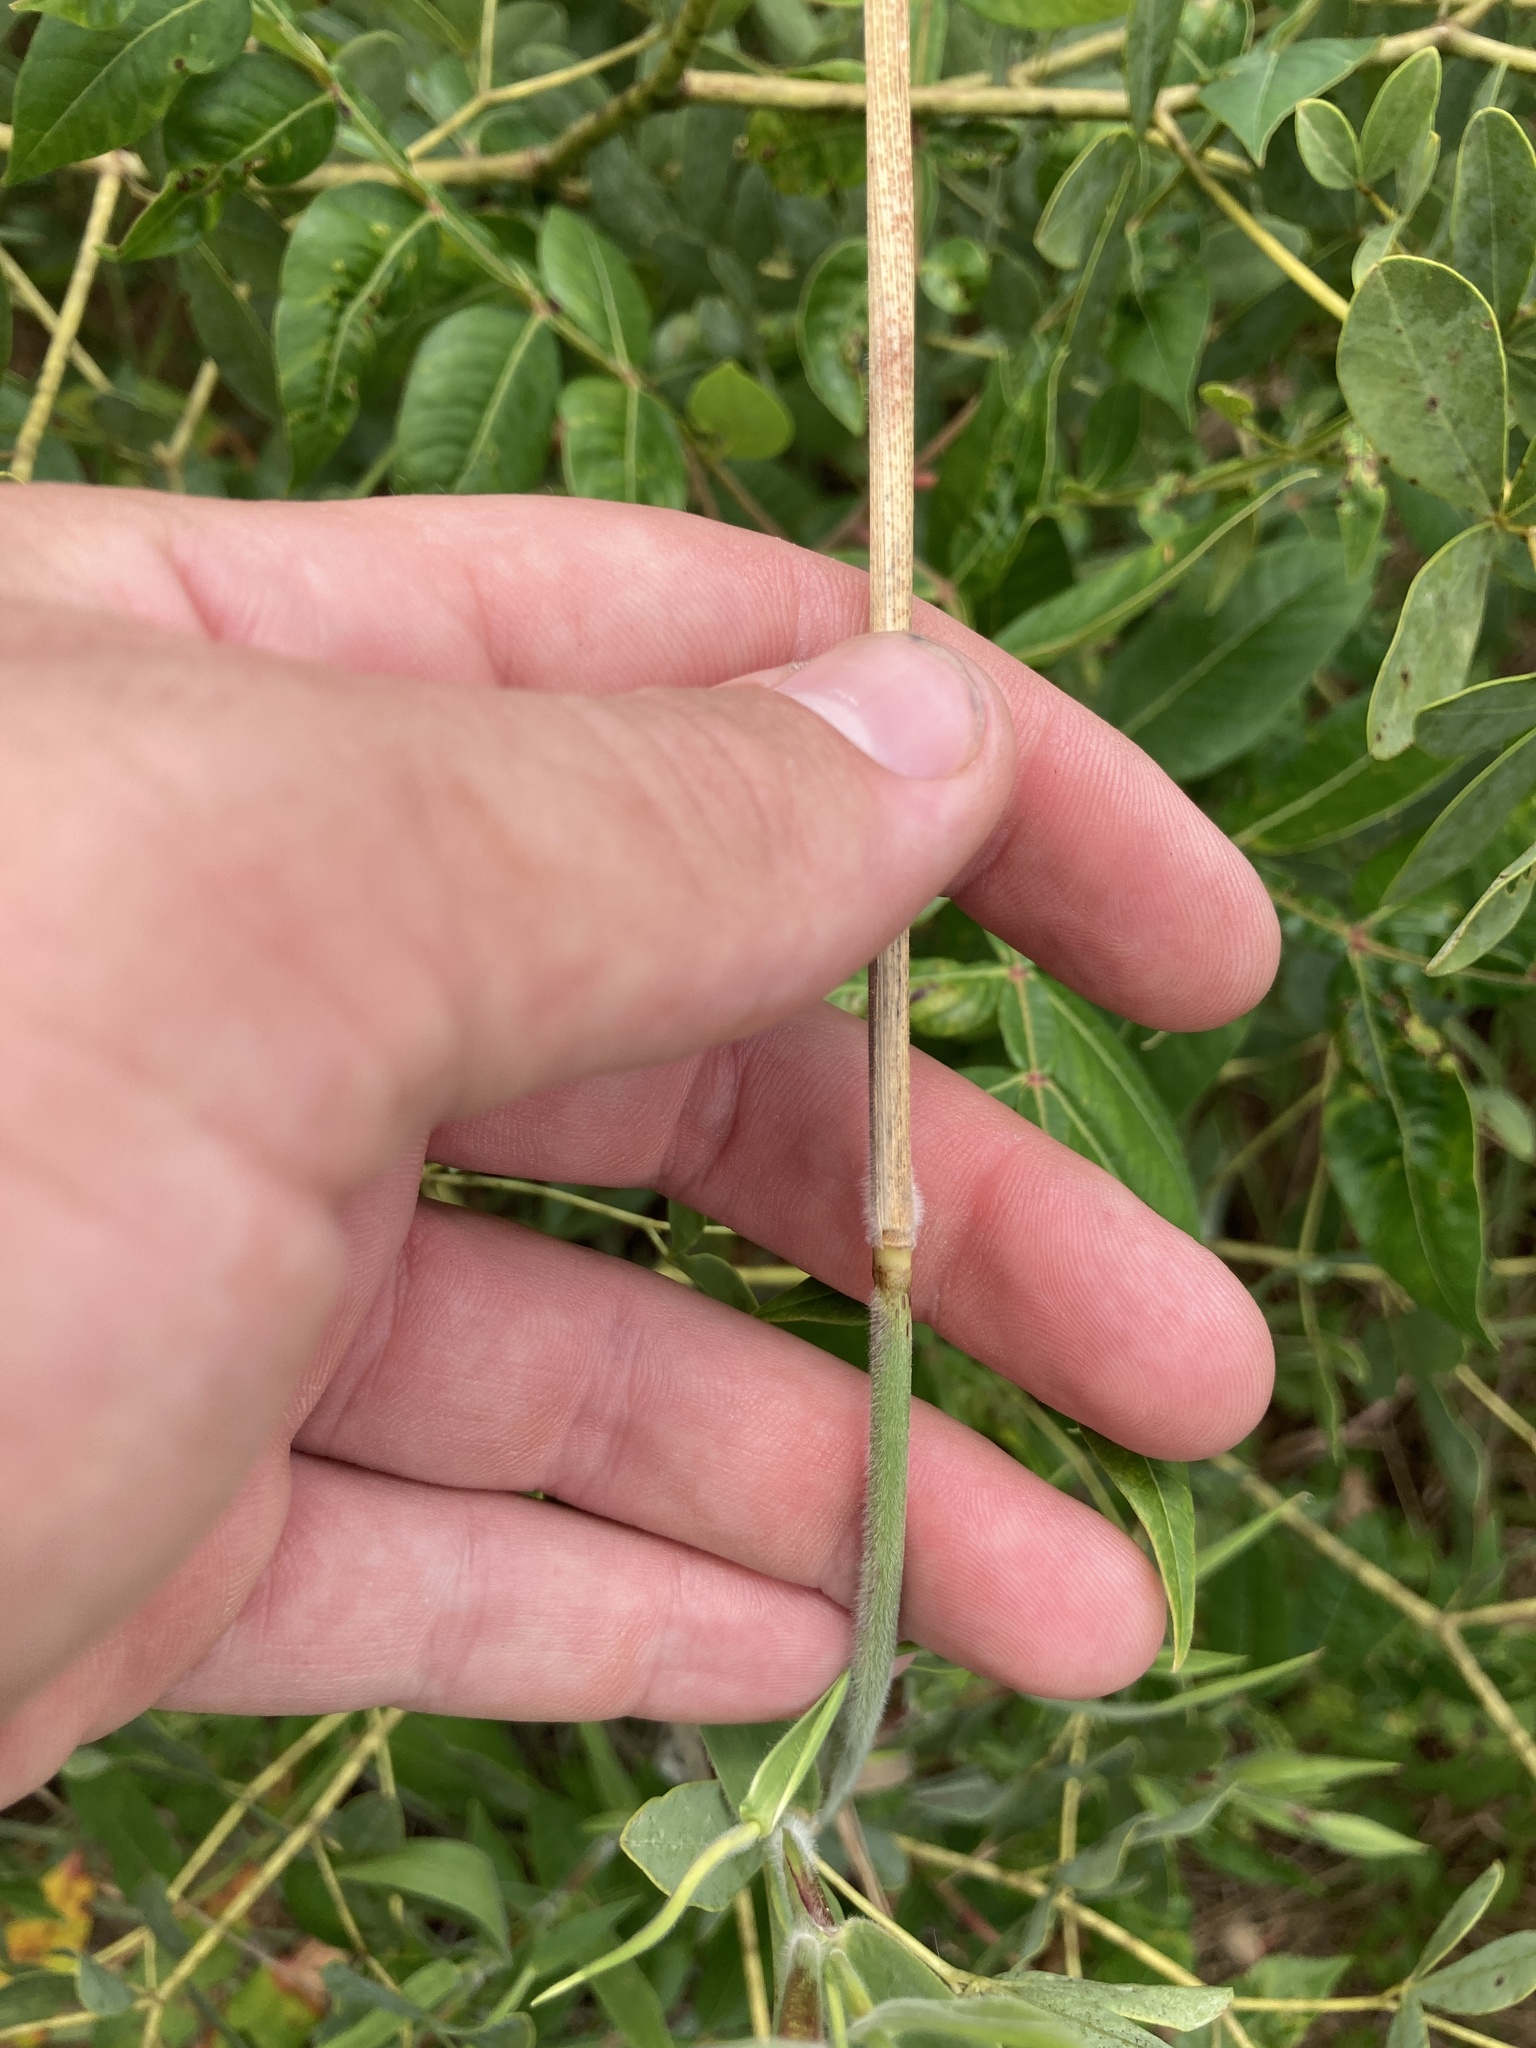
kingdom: Plantae
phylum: Tracheophyta
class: Liliopsida
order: Poales
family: Poaceae
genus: Dichanthelium
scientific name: Dichanthelium scoparium
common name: Velvety panic grass
